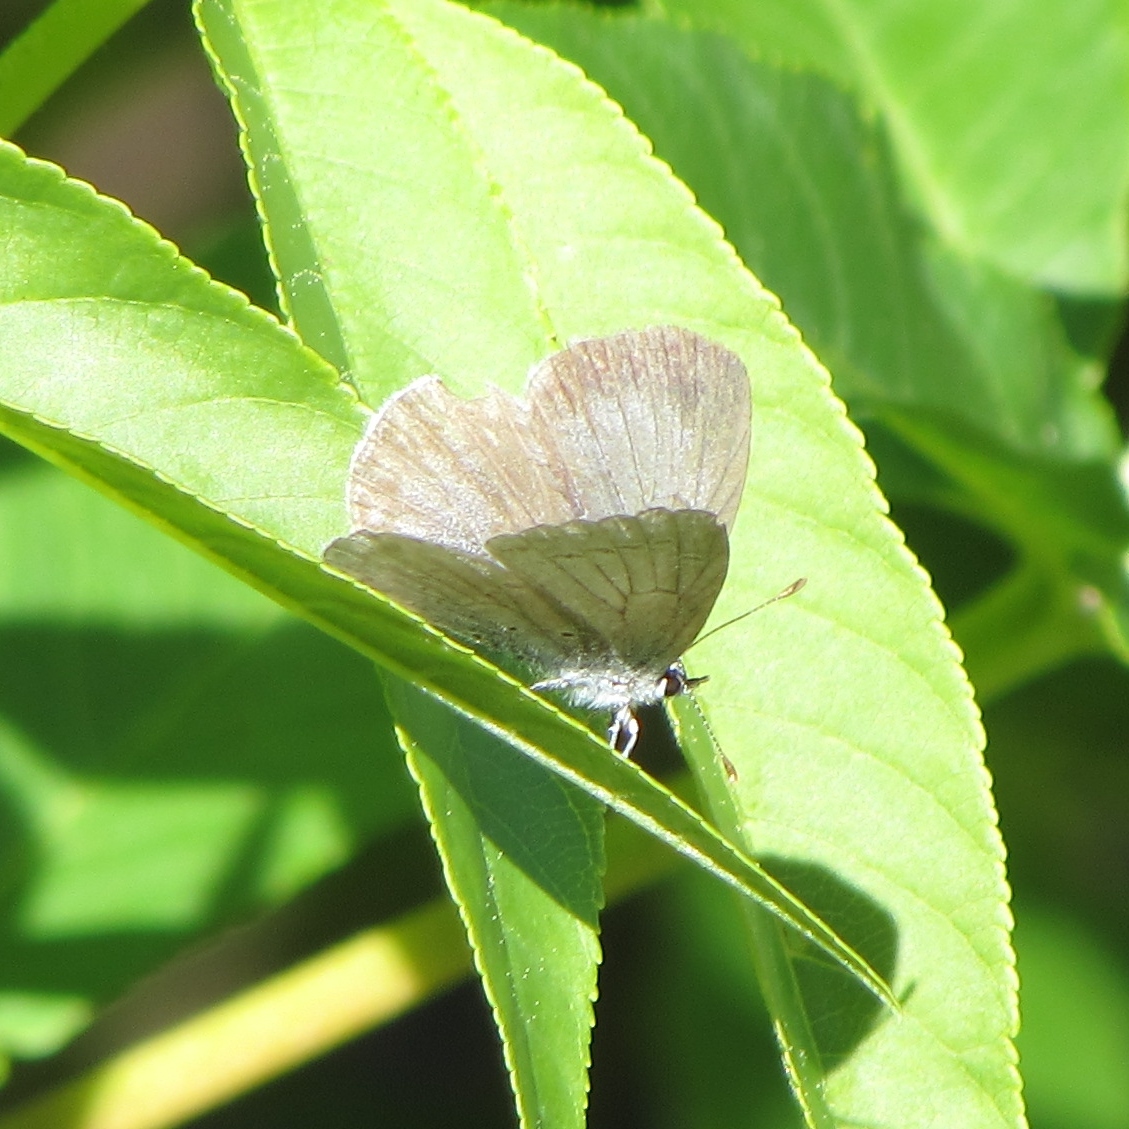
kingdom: Animalia
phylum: Arthropoda
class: Insecta
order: Lepidoptera
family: Lycaenidae
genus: Celastrina
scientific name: Celastrina ladon
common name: Spring azure
